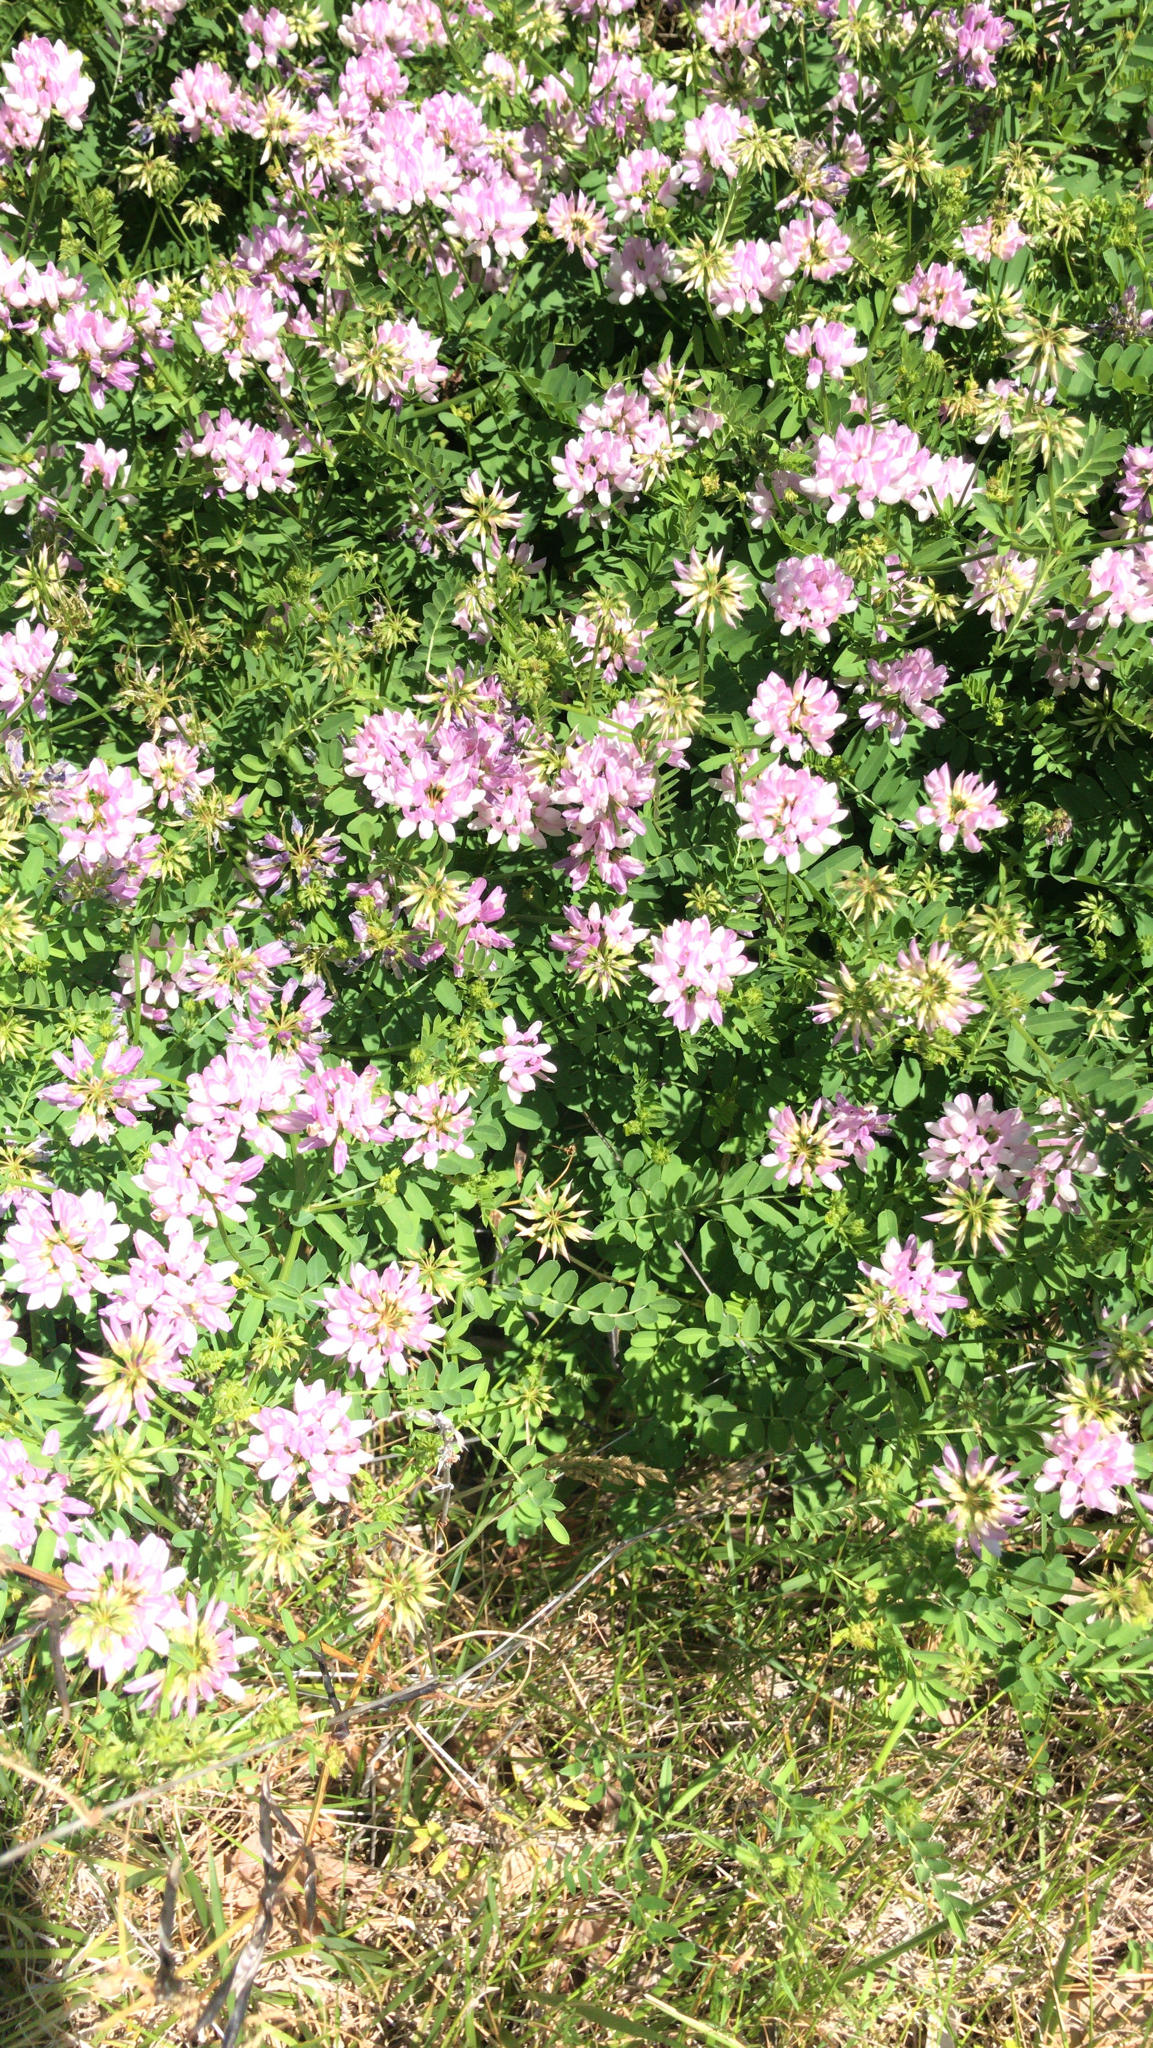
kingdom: Plantae
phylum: Tracheophyta
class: Magnoliopsida
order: Fabales
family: Fabaceae
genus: Coronilla
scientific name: Coronilla varia
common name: Crownvetch
